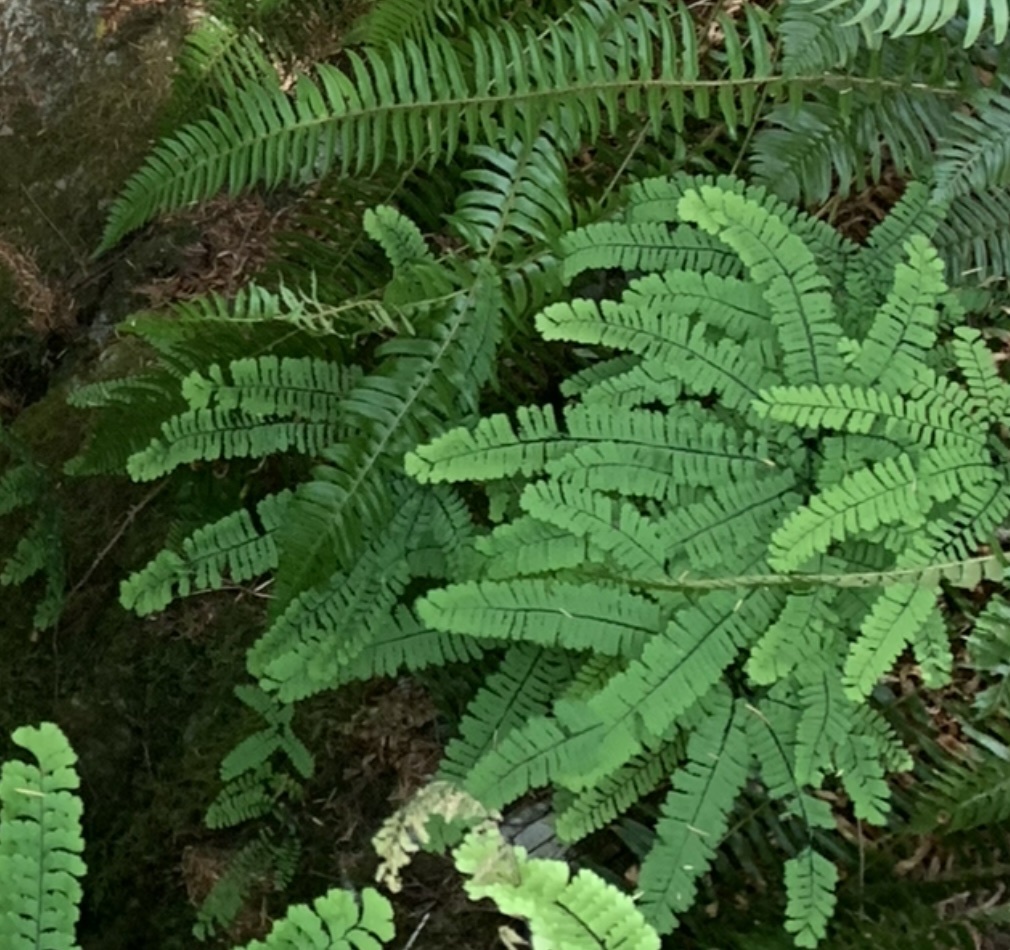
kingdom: Plantae
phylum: Tracheophyta
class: Polypodiopsida
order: Polypodiales
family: Pteridaceae
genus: Adiantum
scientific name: Adiantum aleuticum
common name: Aleutian maidenhair fern
